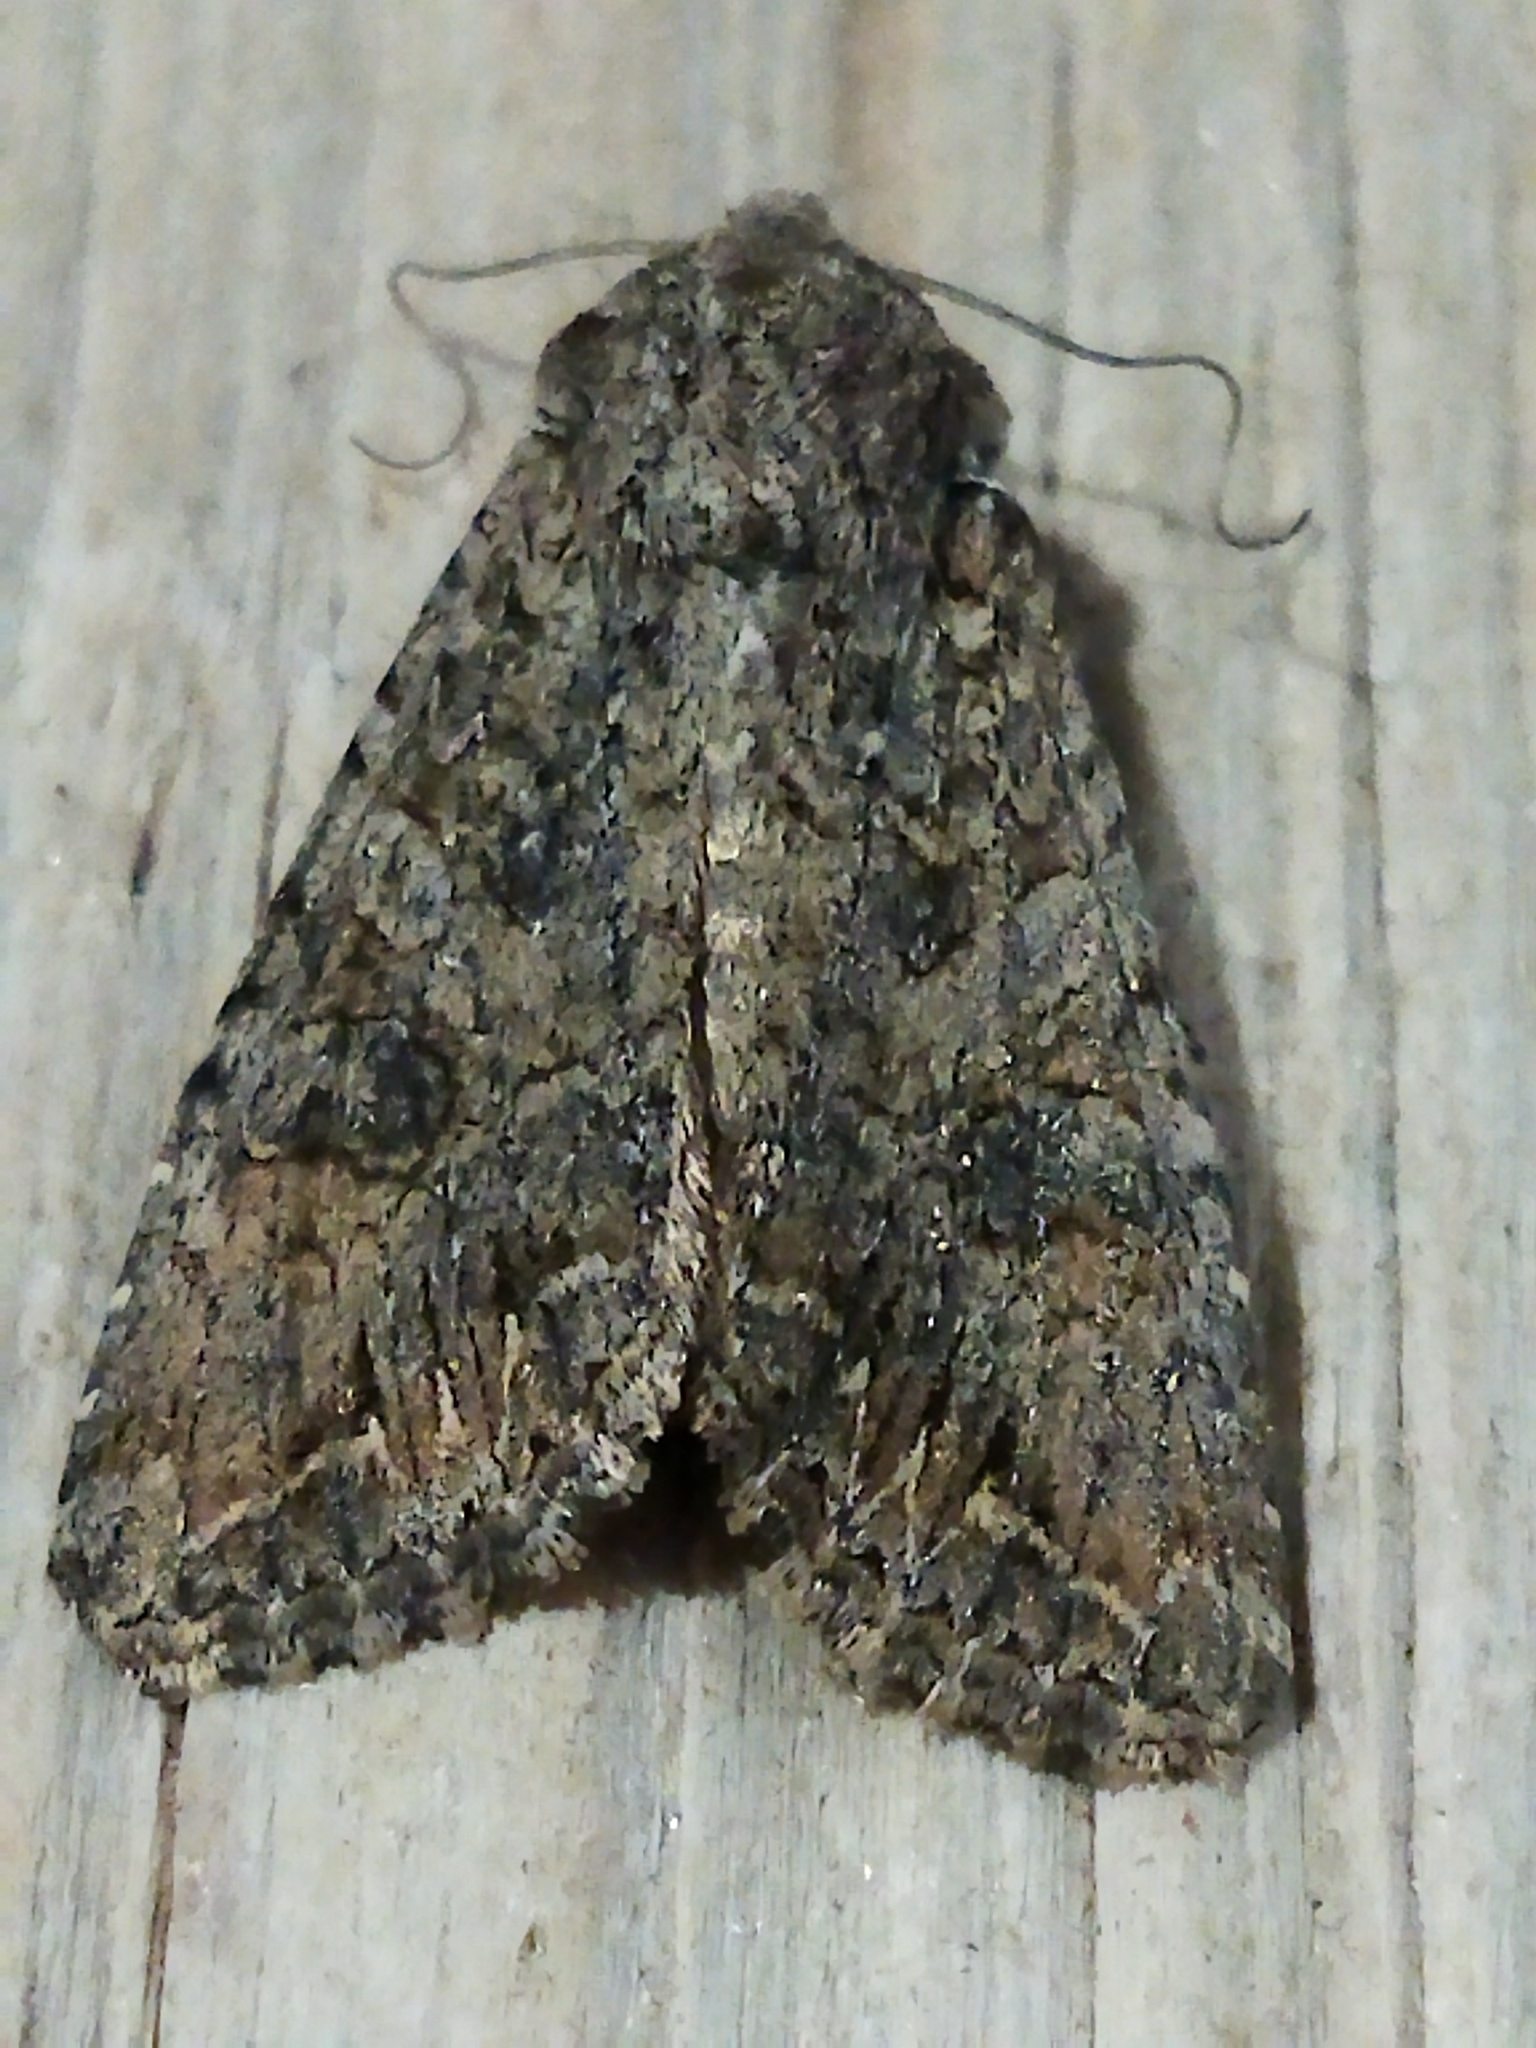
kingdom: Animalia
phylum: Arthropoda
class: Insecta
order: Lepidoptera
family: Noctuidae
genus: Anarta
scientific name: Anarta trifolii
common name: Clover cutworm moth
